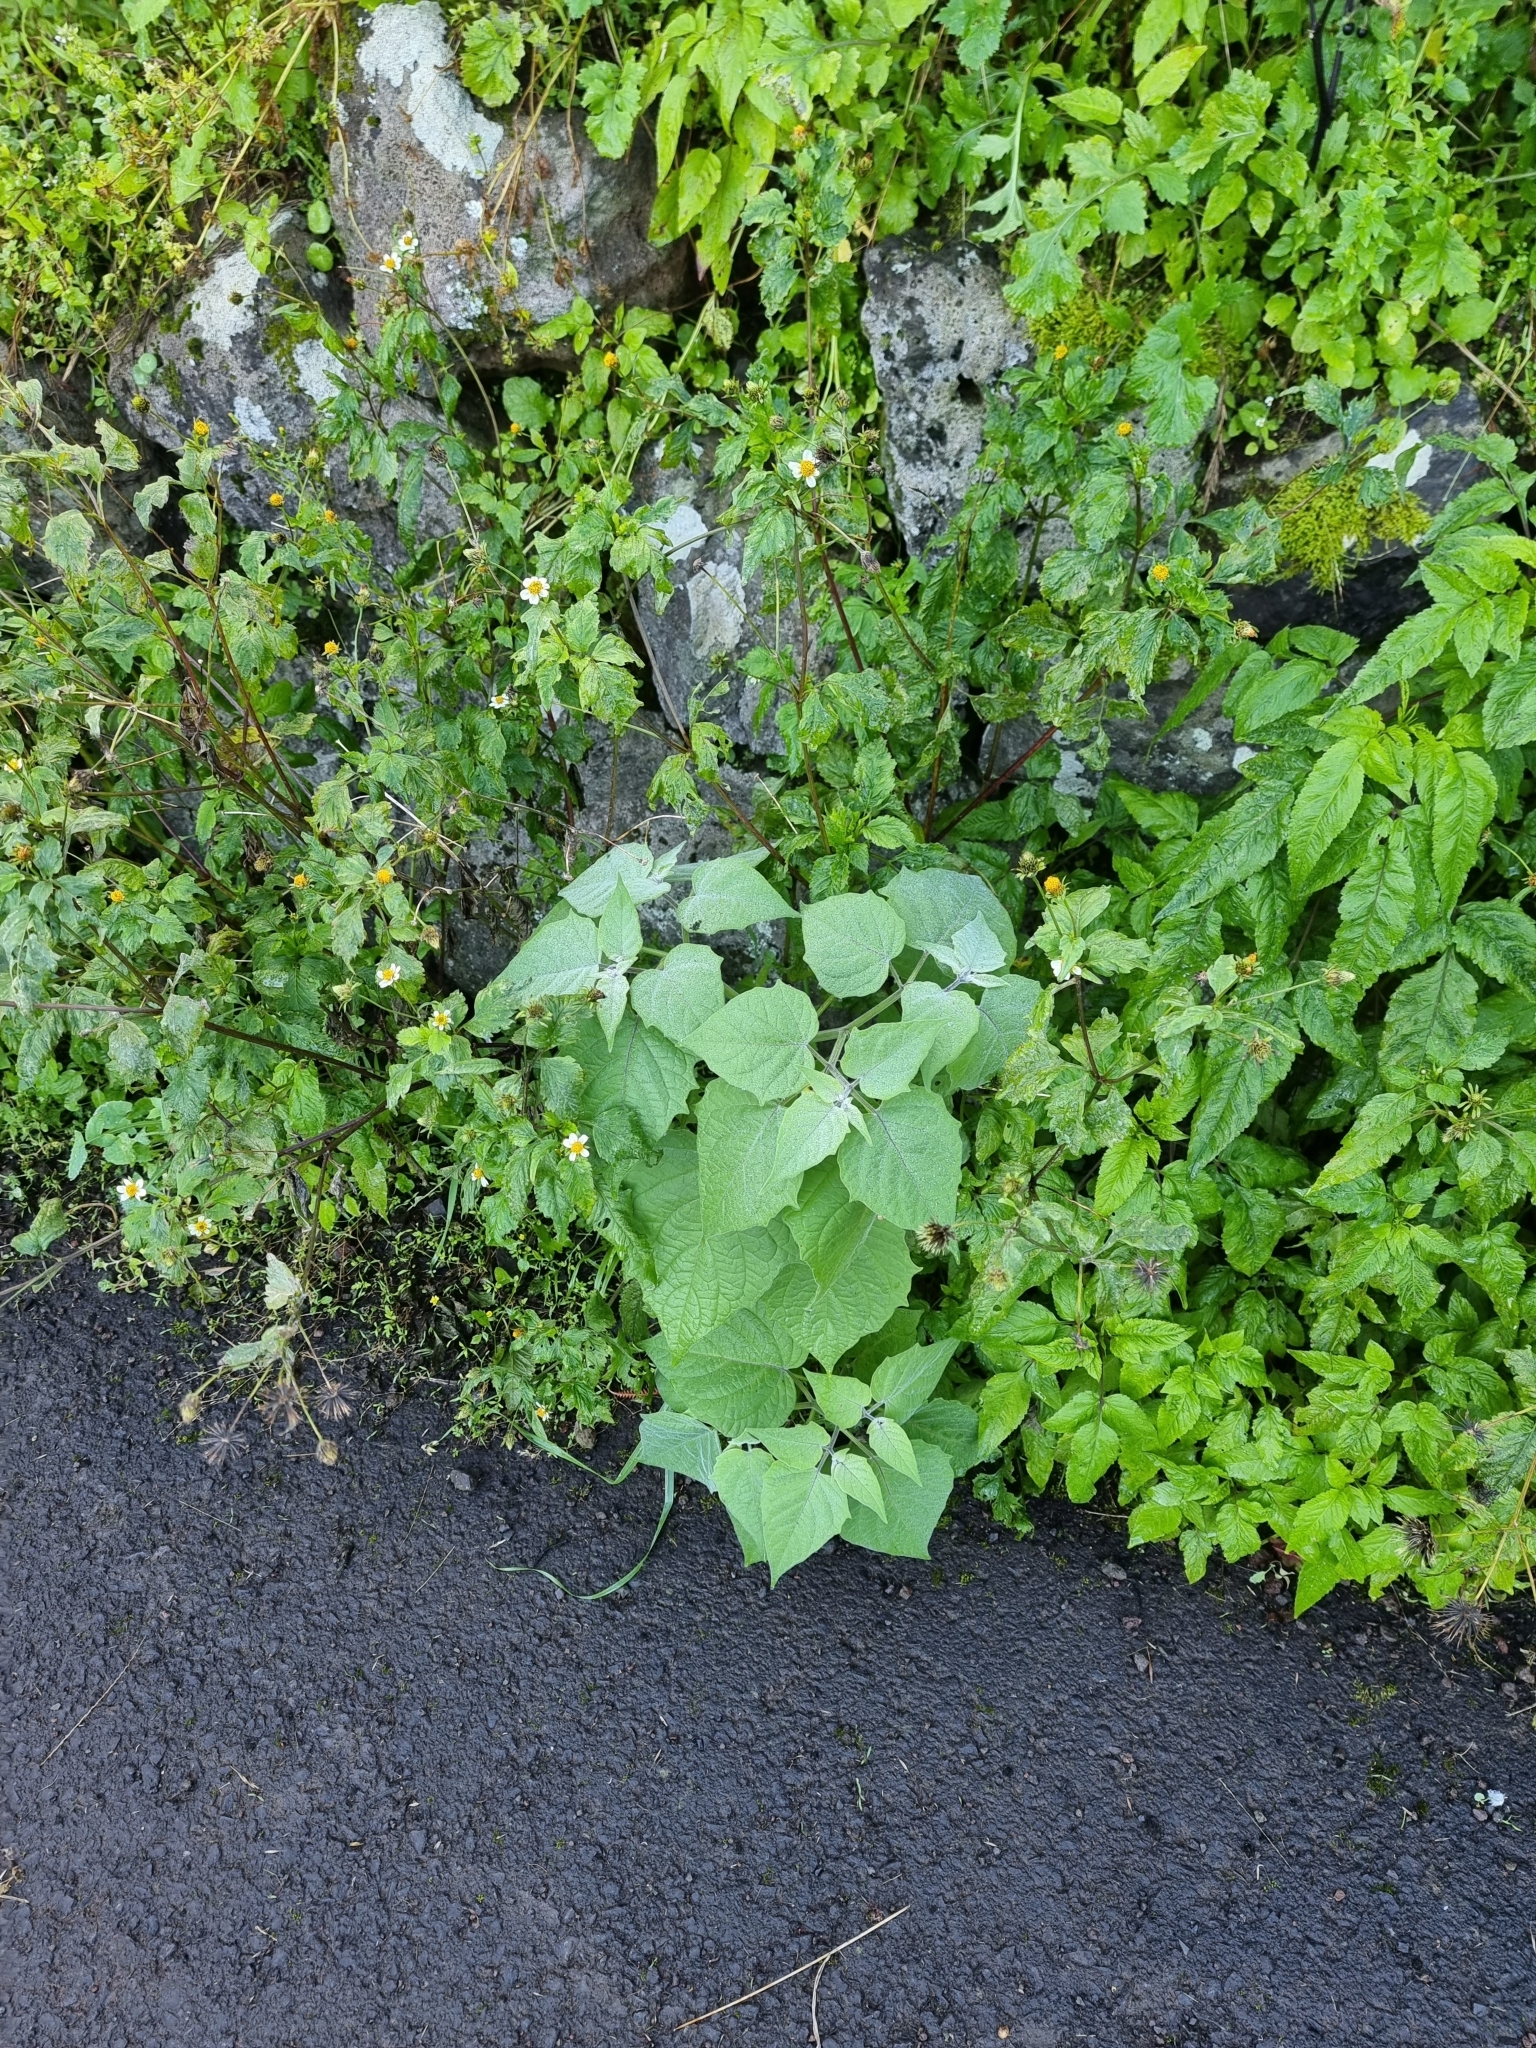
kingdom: Plantae
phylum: Tracheophyta
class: Magnoliopsida
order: Solanales
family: Solanaceae
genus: Physalis
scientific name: Physalis peruviana
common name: Cape-gooseberry
